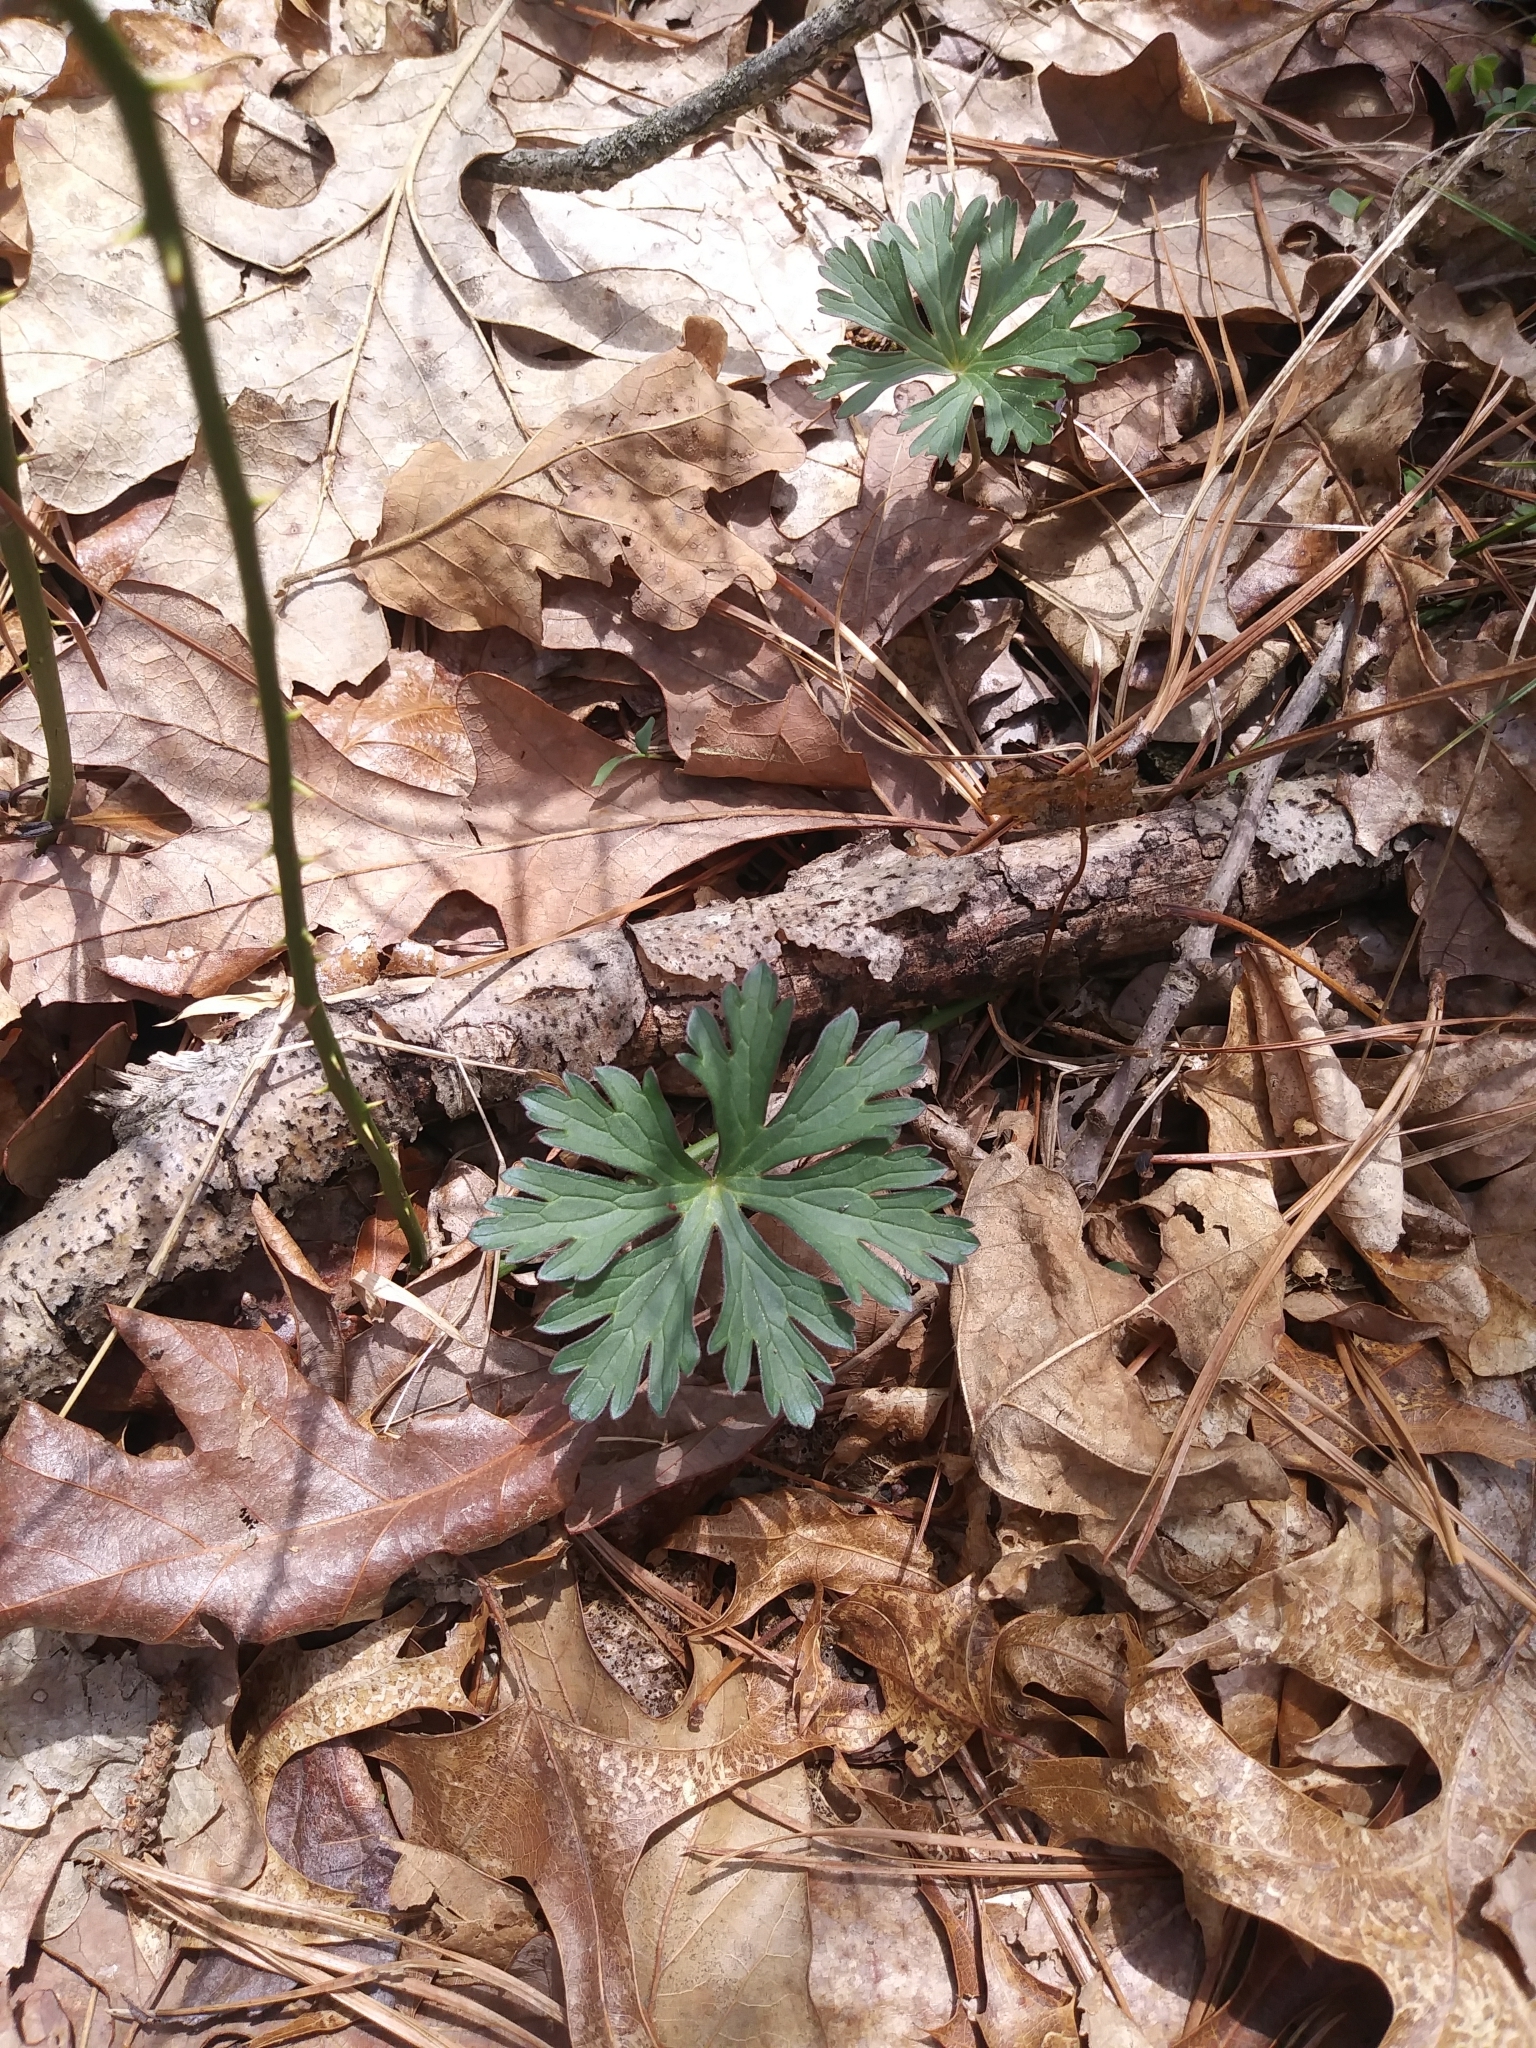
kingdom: Plantae
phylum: Tracheophyta
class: Magnoliopsida
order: Geraniales
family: Geraniaceae
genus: Geranium
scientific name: Geranium carolinianum
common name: Carolina crane's-bill
